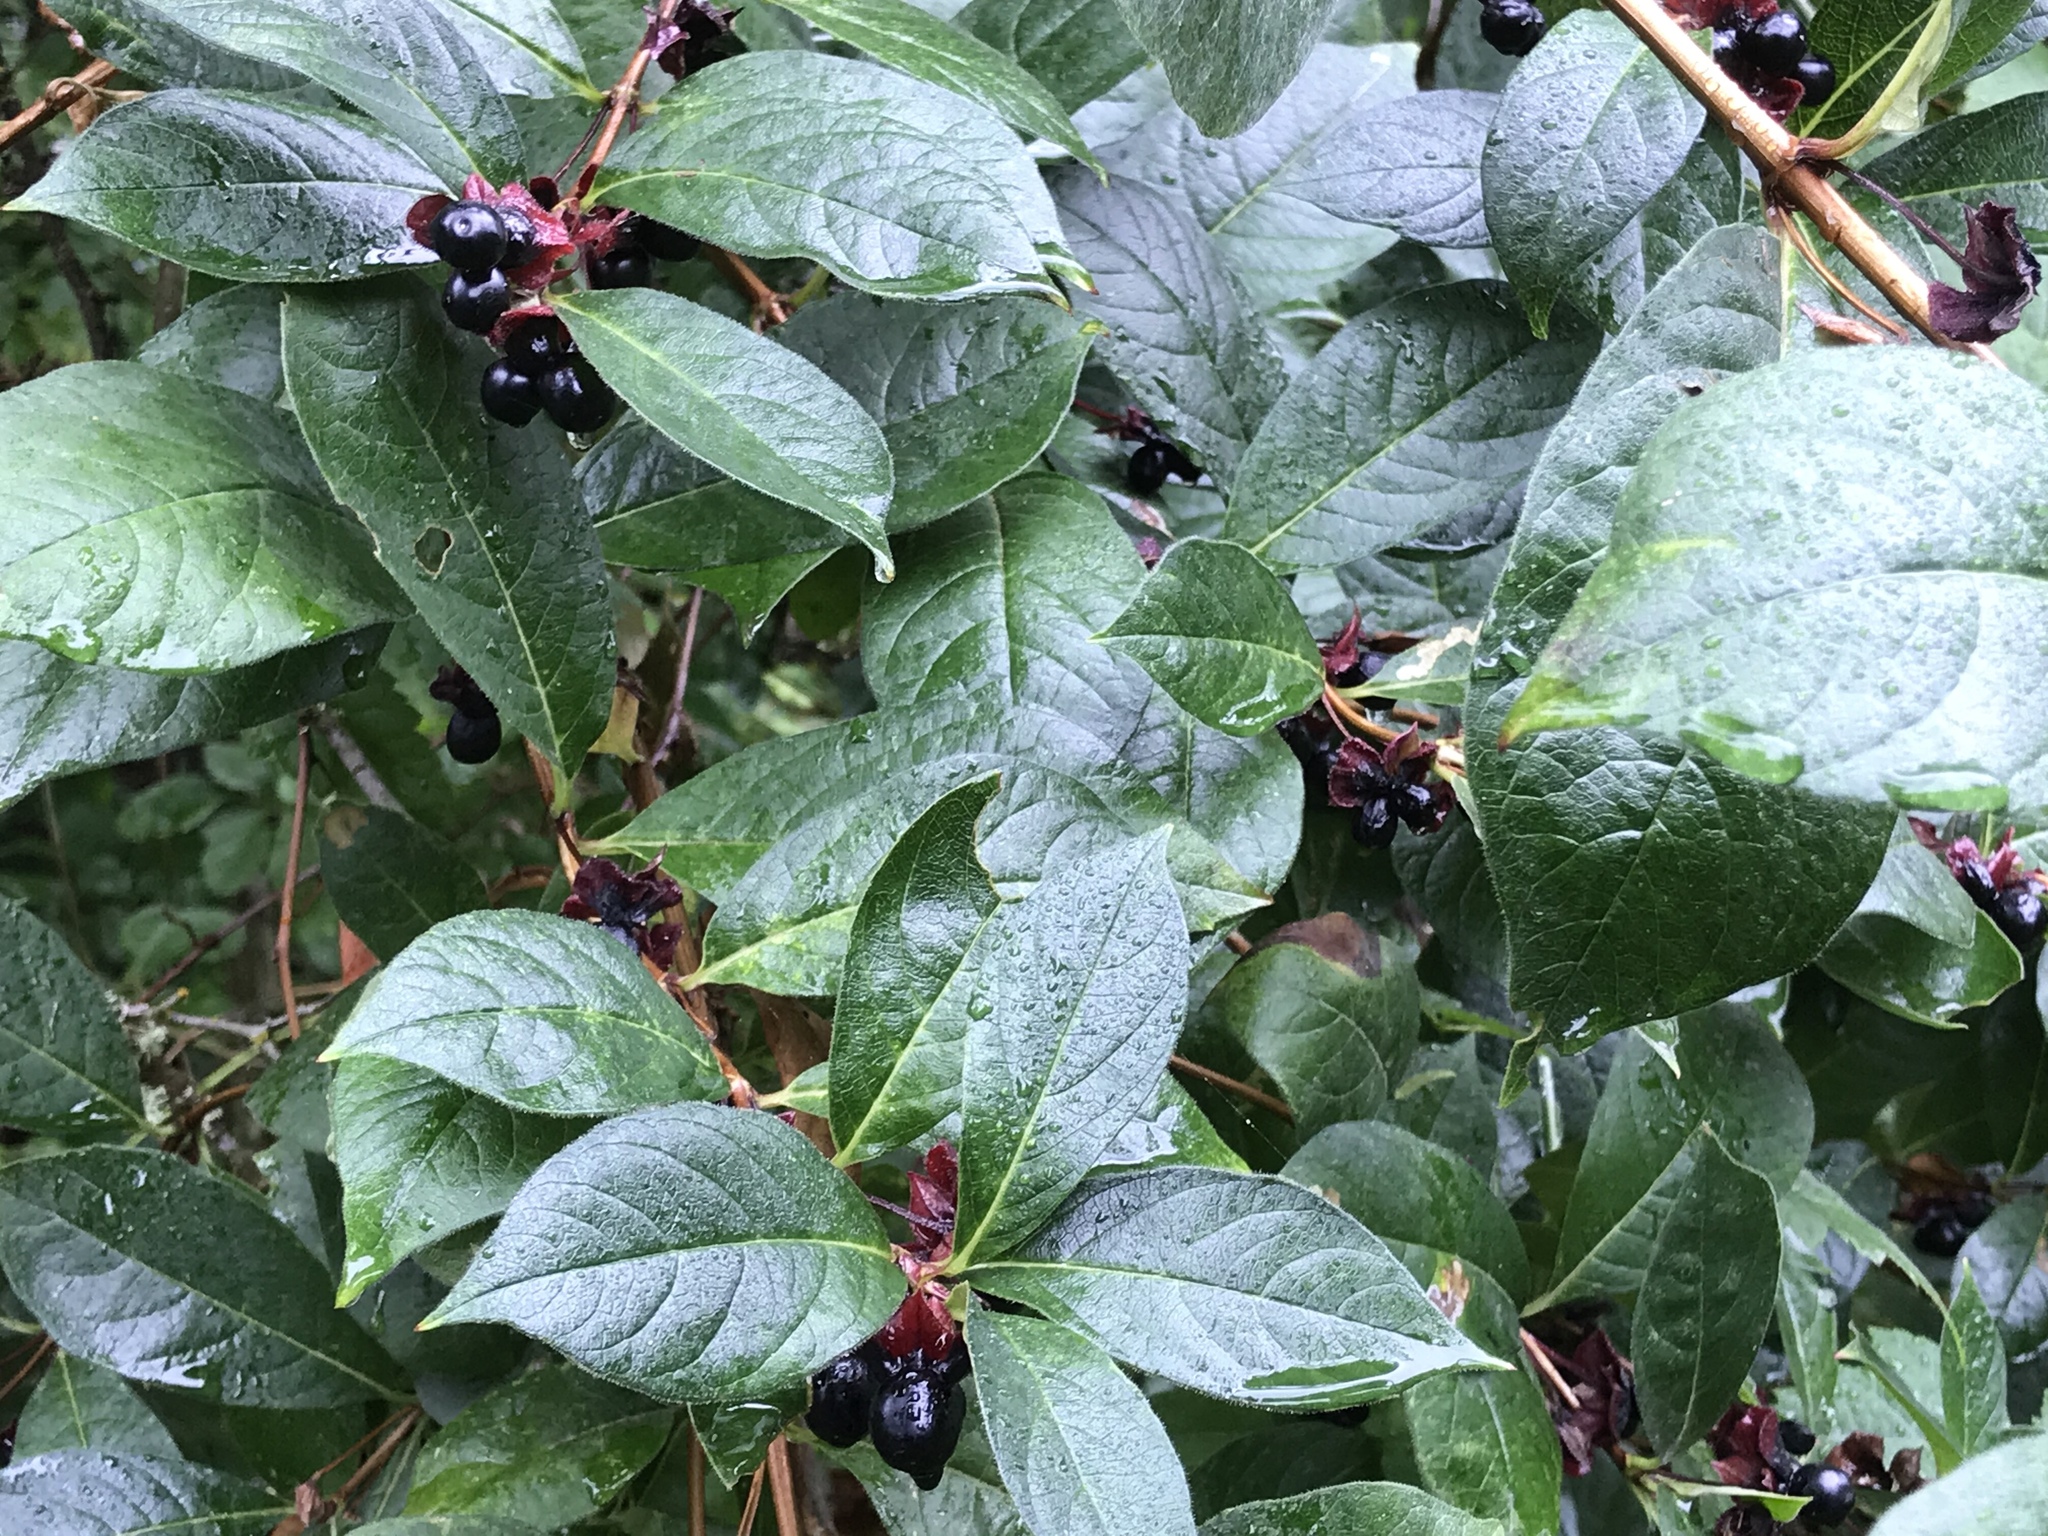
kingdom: Plantae
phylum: Tracheophyta
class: Magnoliopsida
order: Dipsacales
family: Caprifoliaceae
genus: Lonicera
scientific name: Lonicera involucrata
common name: Californian honeysuckle
